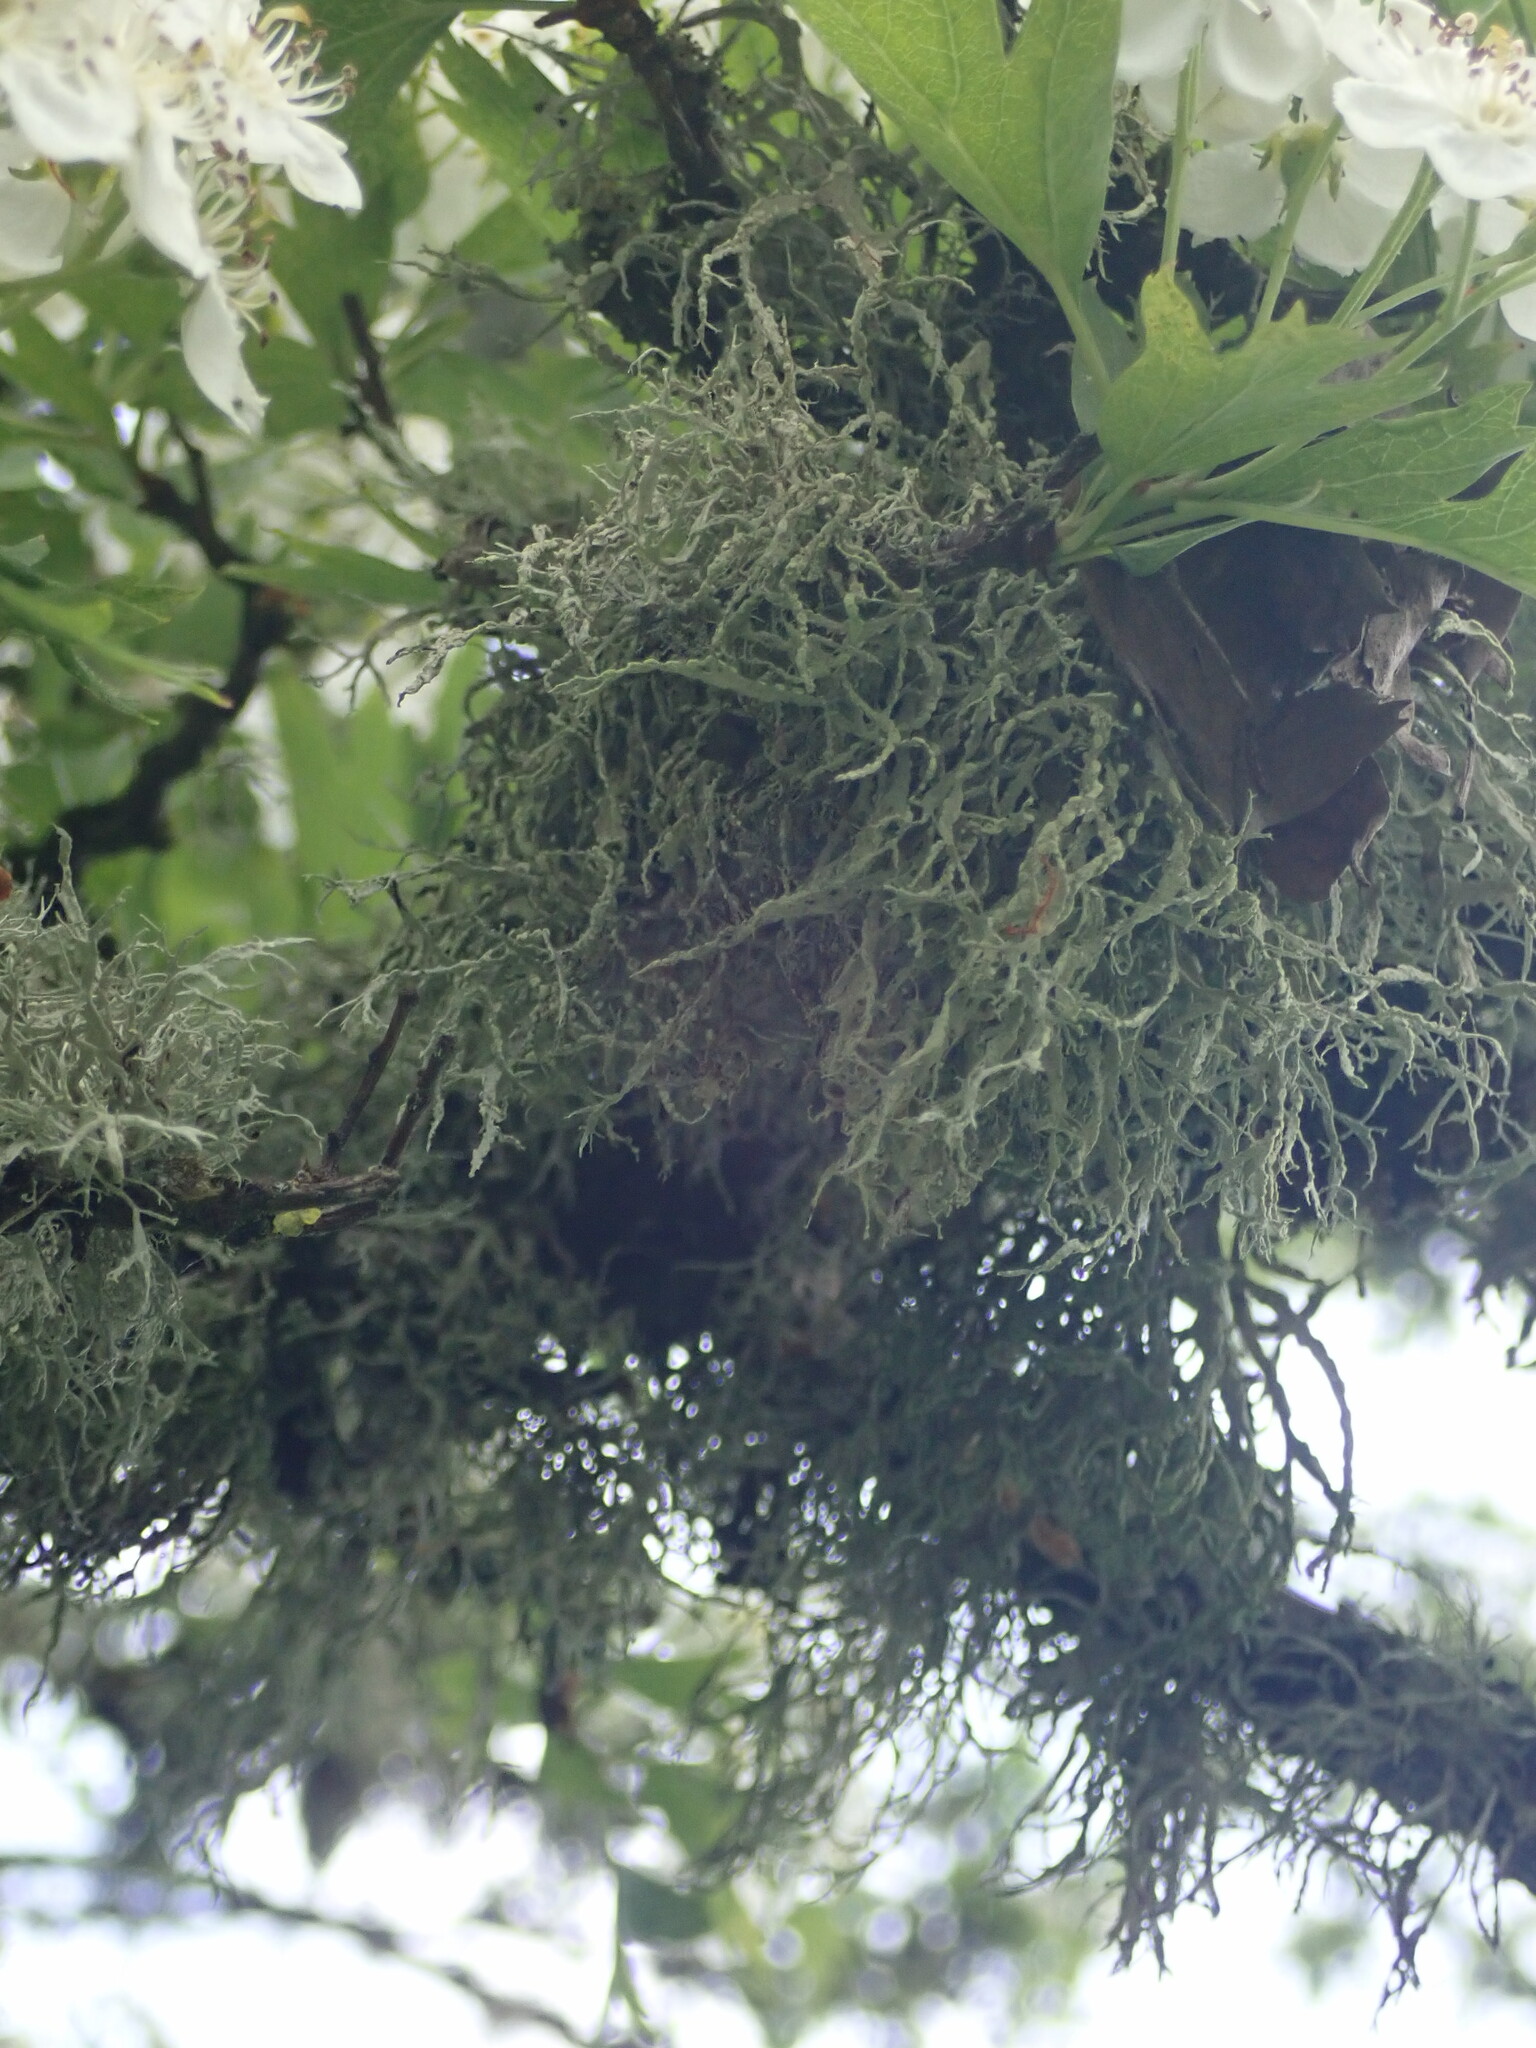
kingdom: Fungi
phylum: Ascomycota
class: Lecanoromycetes
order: Lecanorales
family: Ramalinaceae
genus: Ramalina
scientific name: Ramalina farinacea
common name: Farinose cartilage lichen
